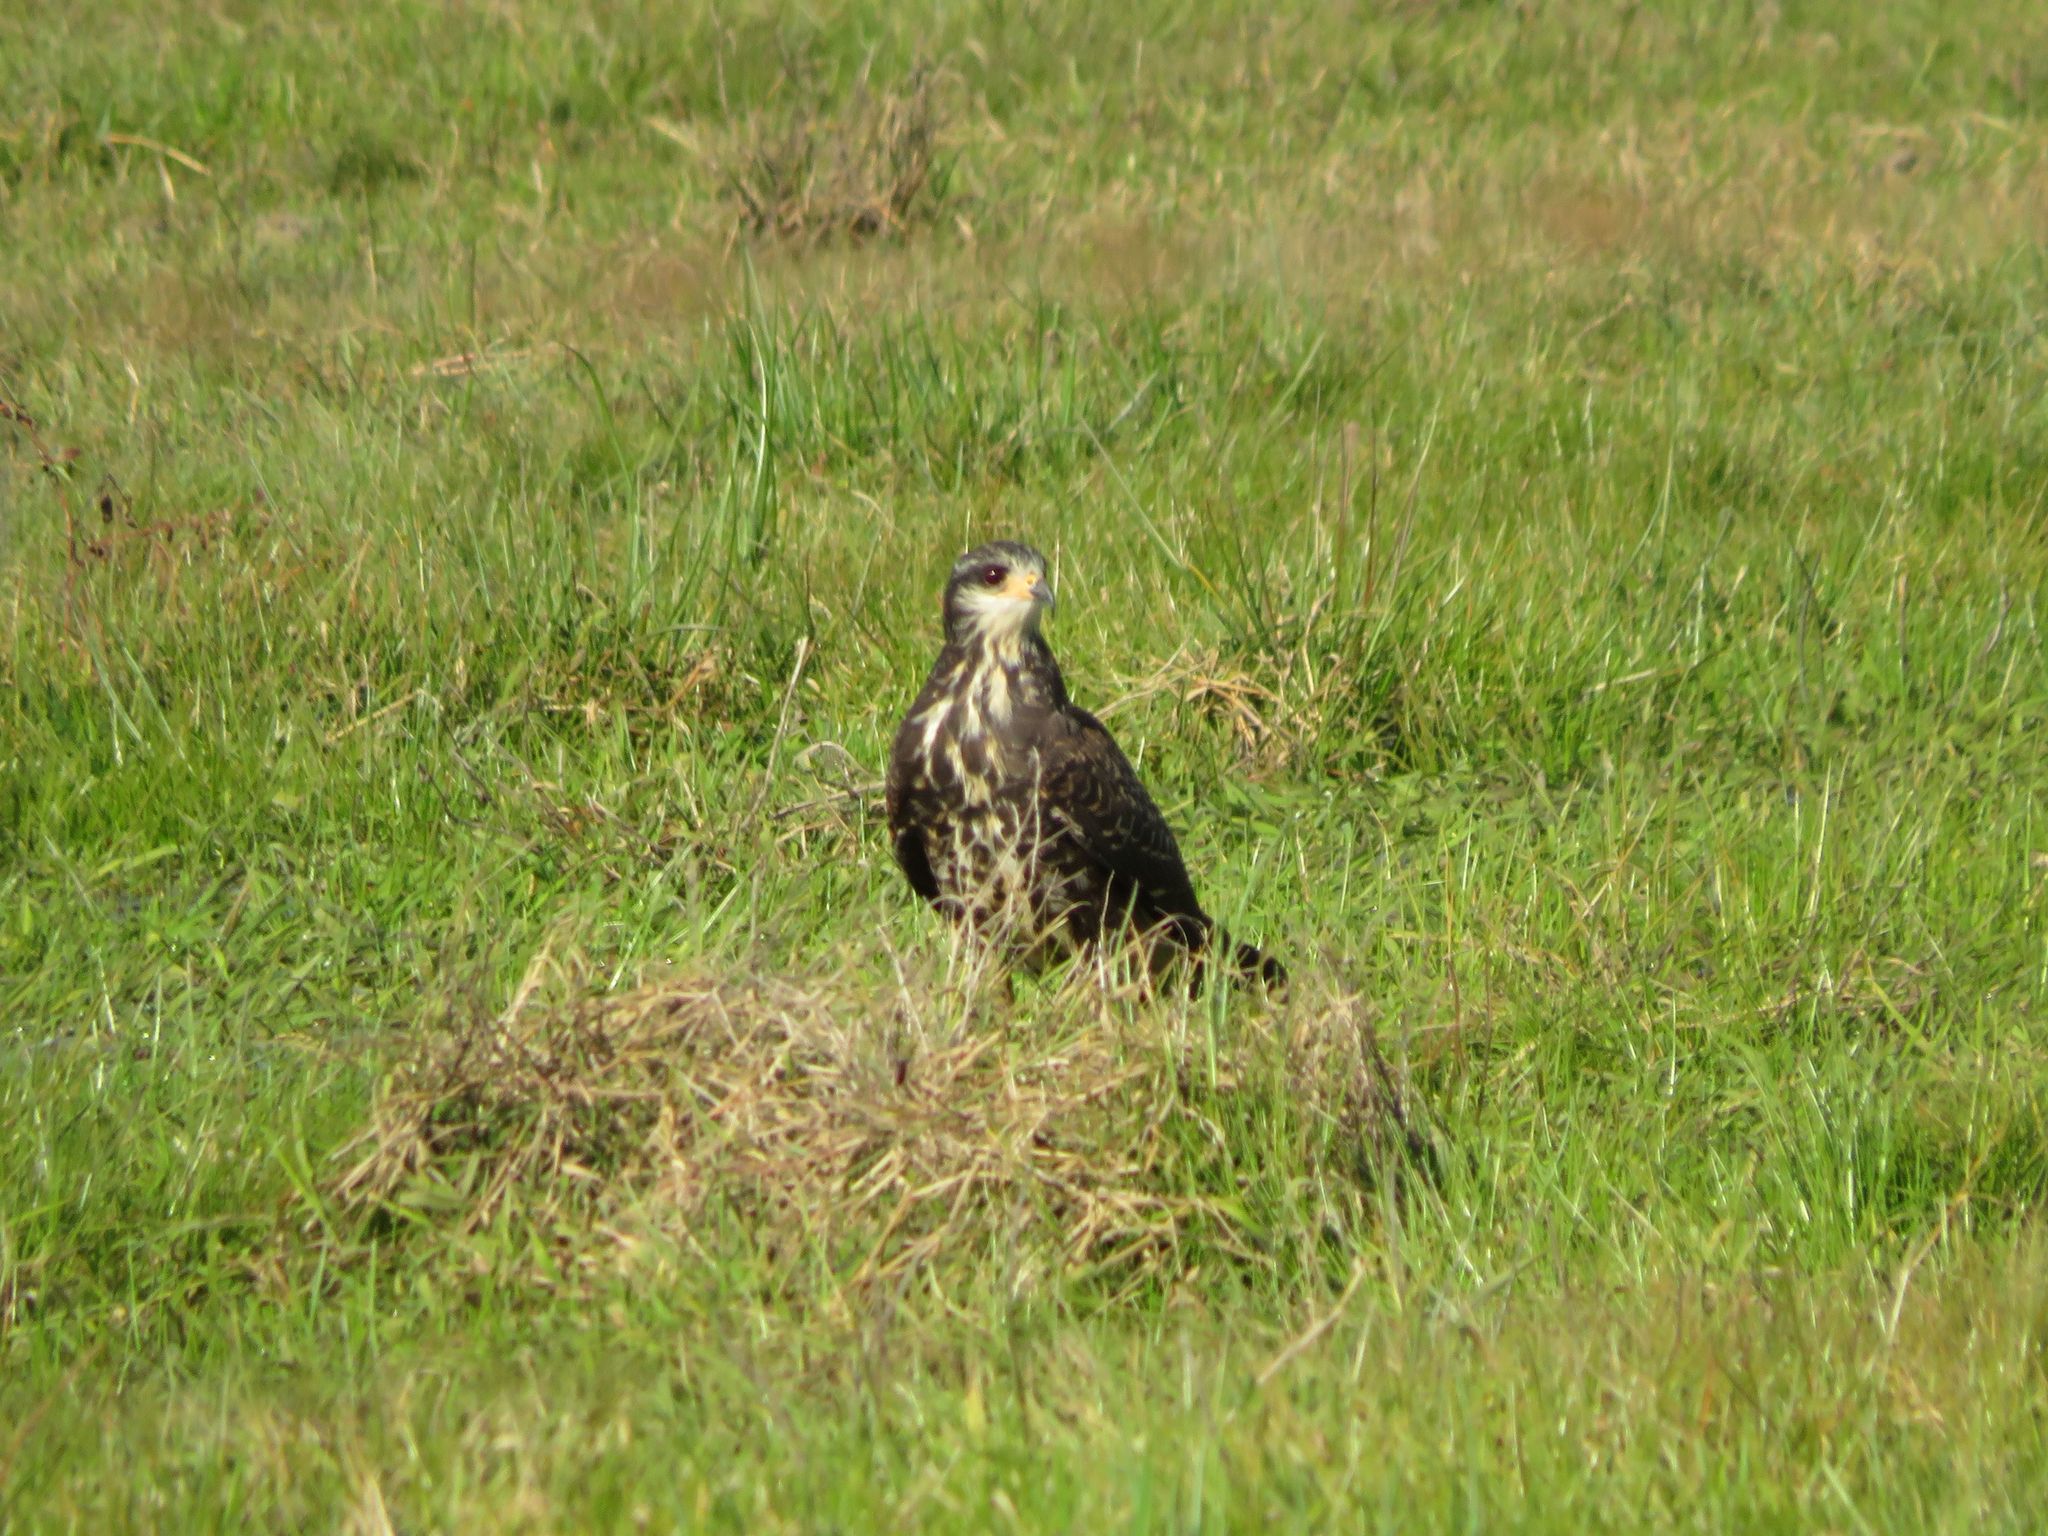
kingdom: Animalia
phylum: Chordata
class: Aves
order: Accipitriformes
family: Accipitridae
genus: Rostrhamus
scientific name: Rostrhamus sociabilis
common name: Snail kite
